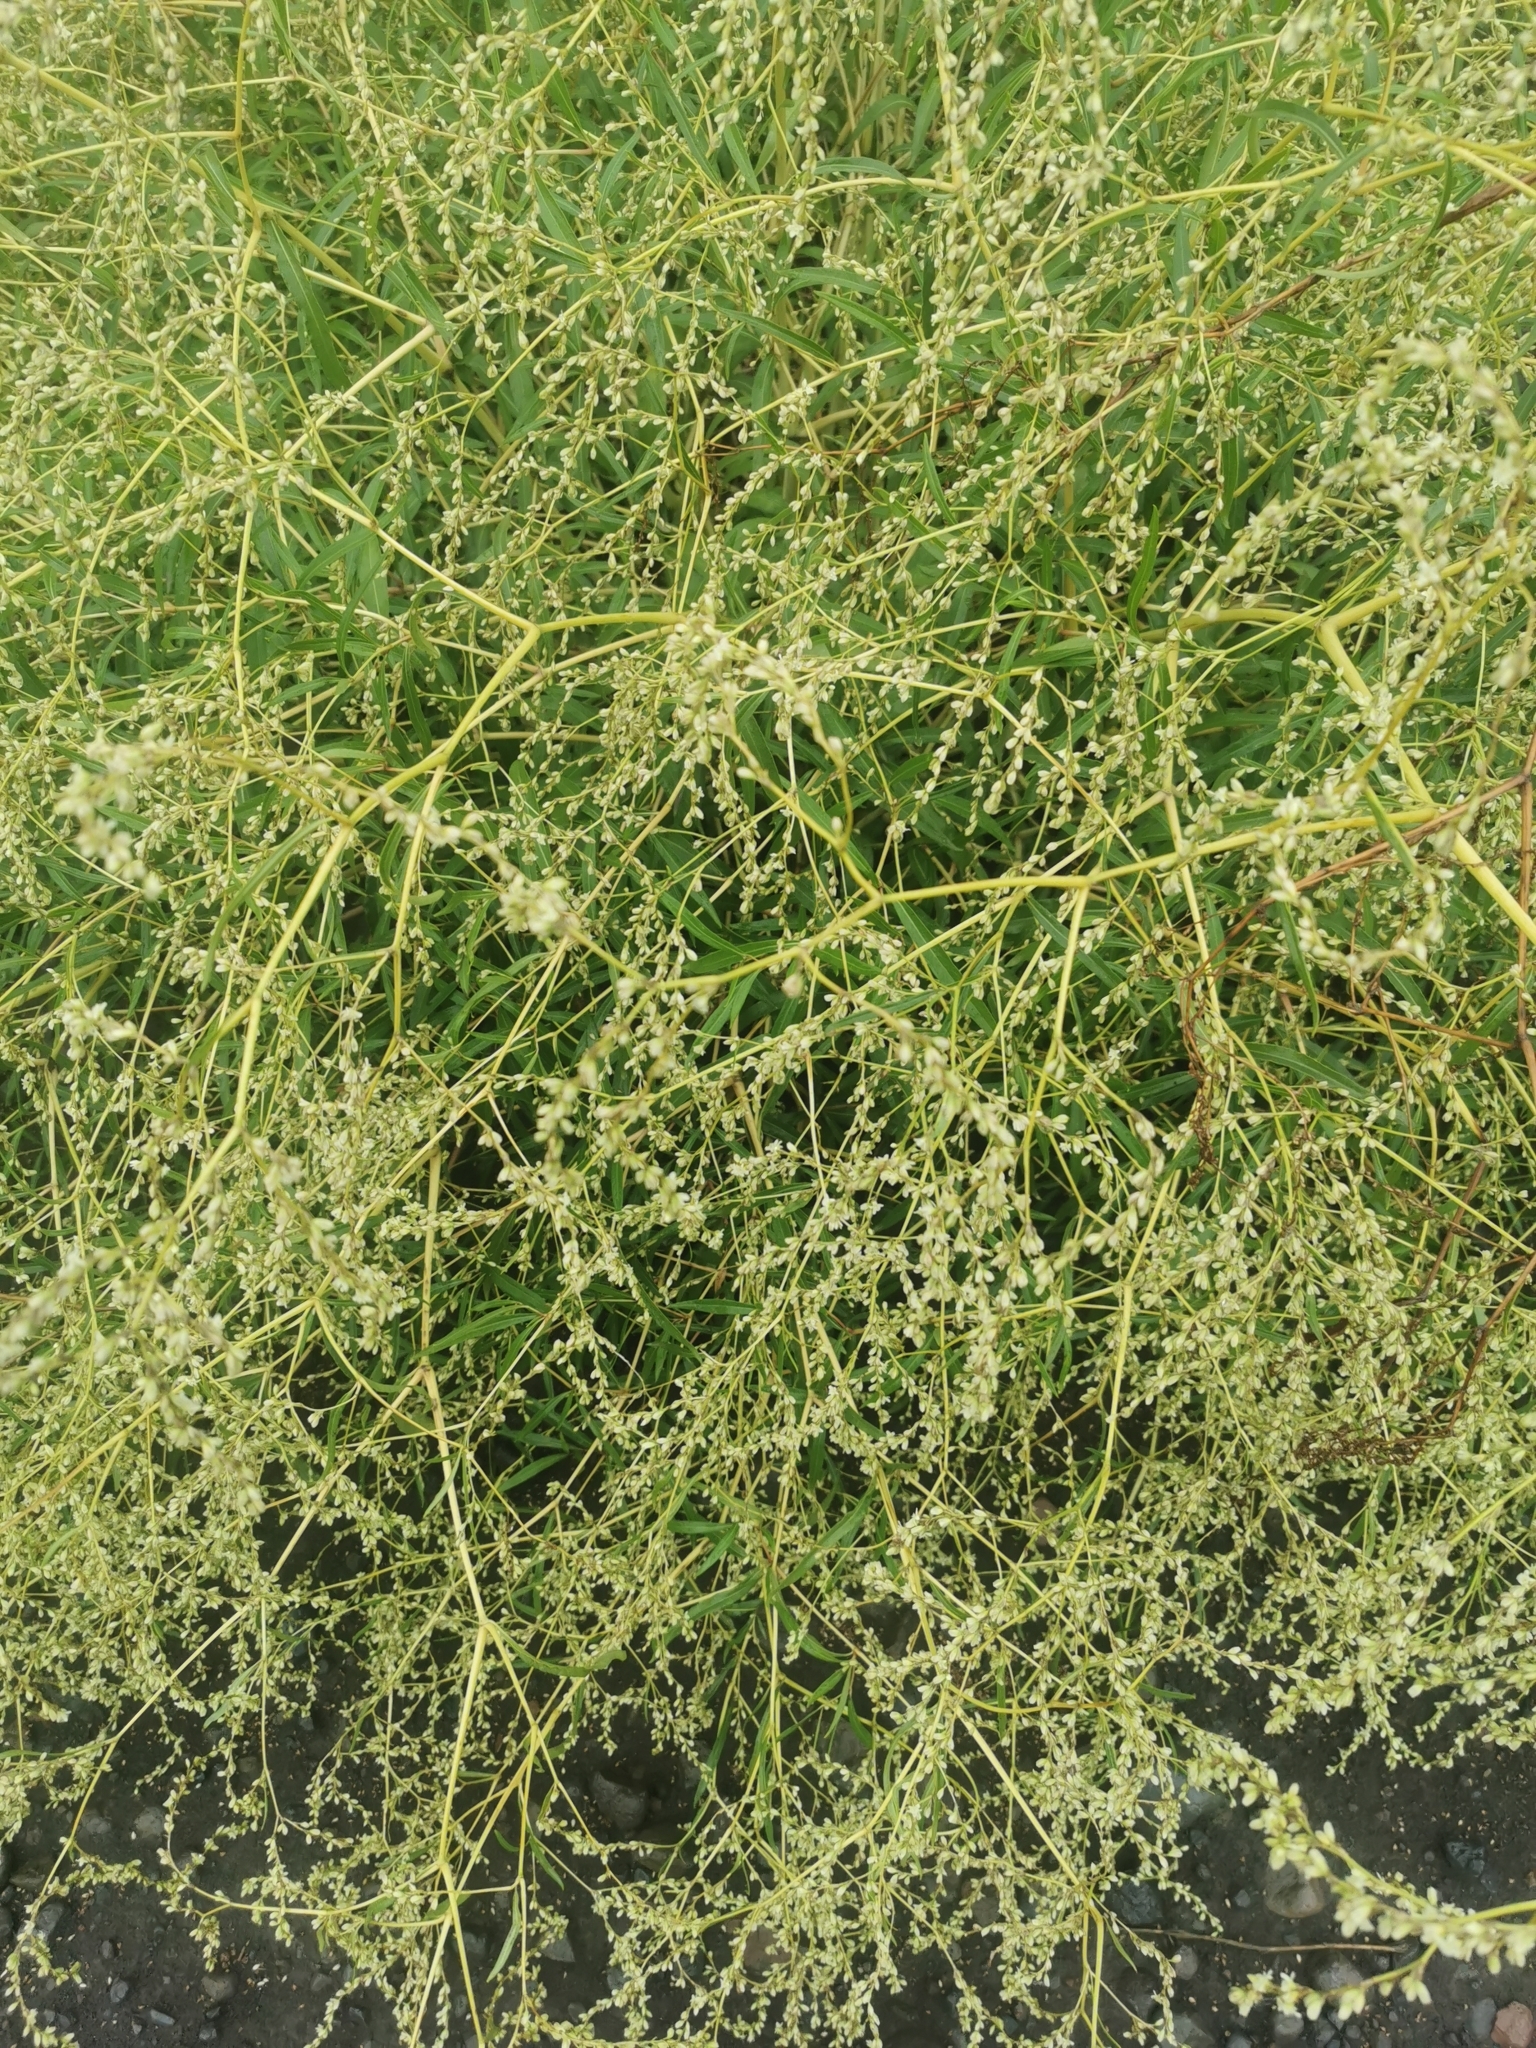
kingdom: Plantae
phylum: Tracheophyta
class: Magnoliopsida
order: Caryophyllales
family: Polygonaceae
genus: Koenigia
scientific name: Koenigia divaricata
